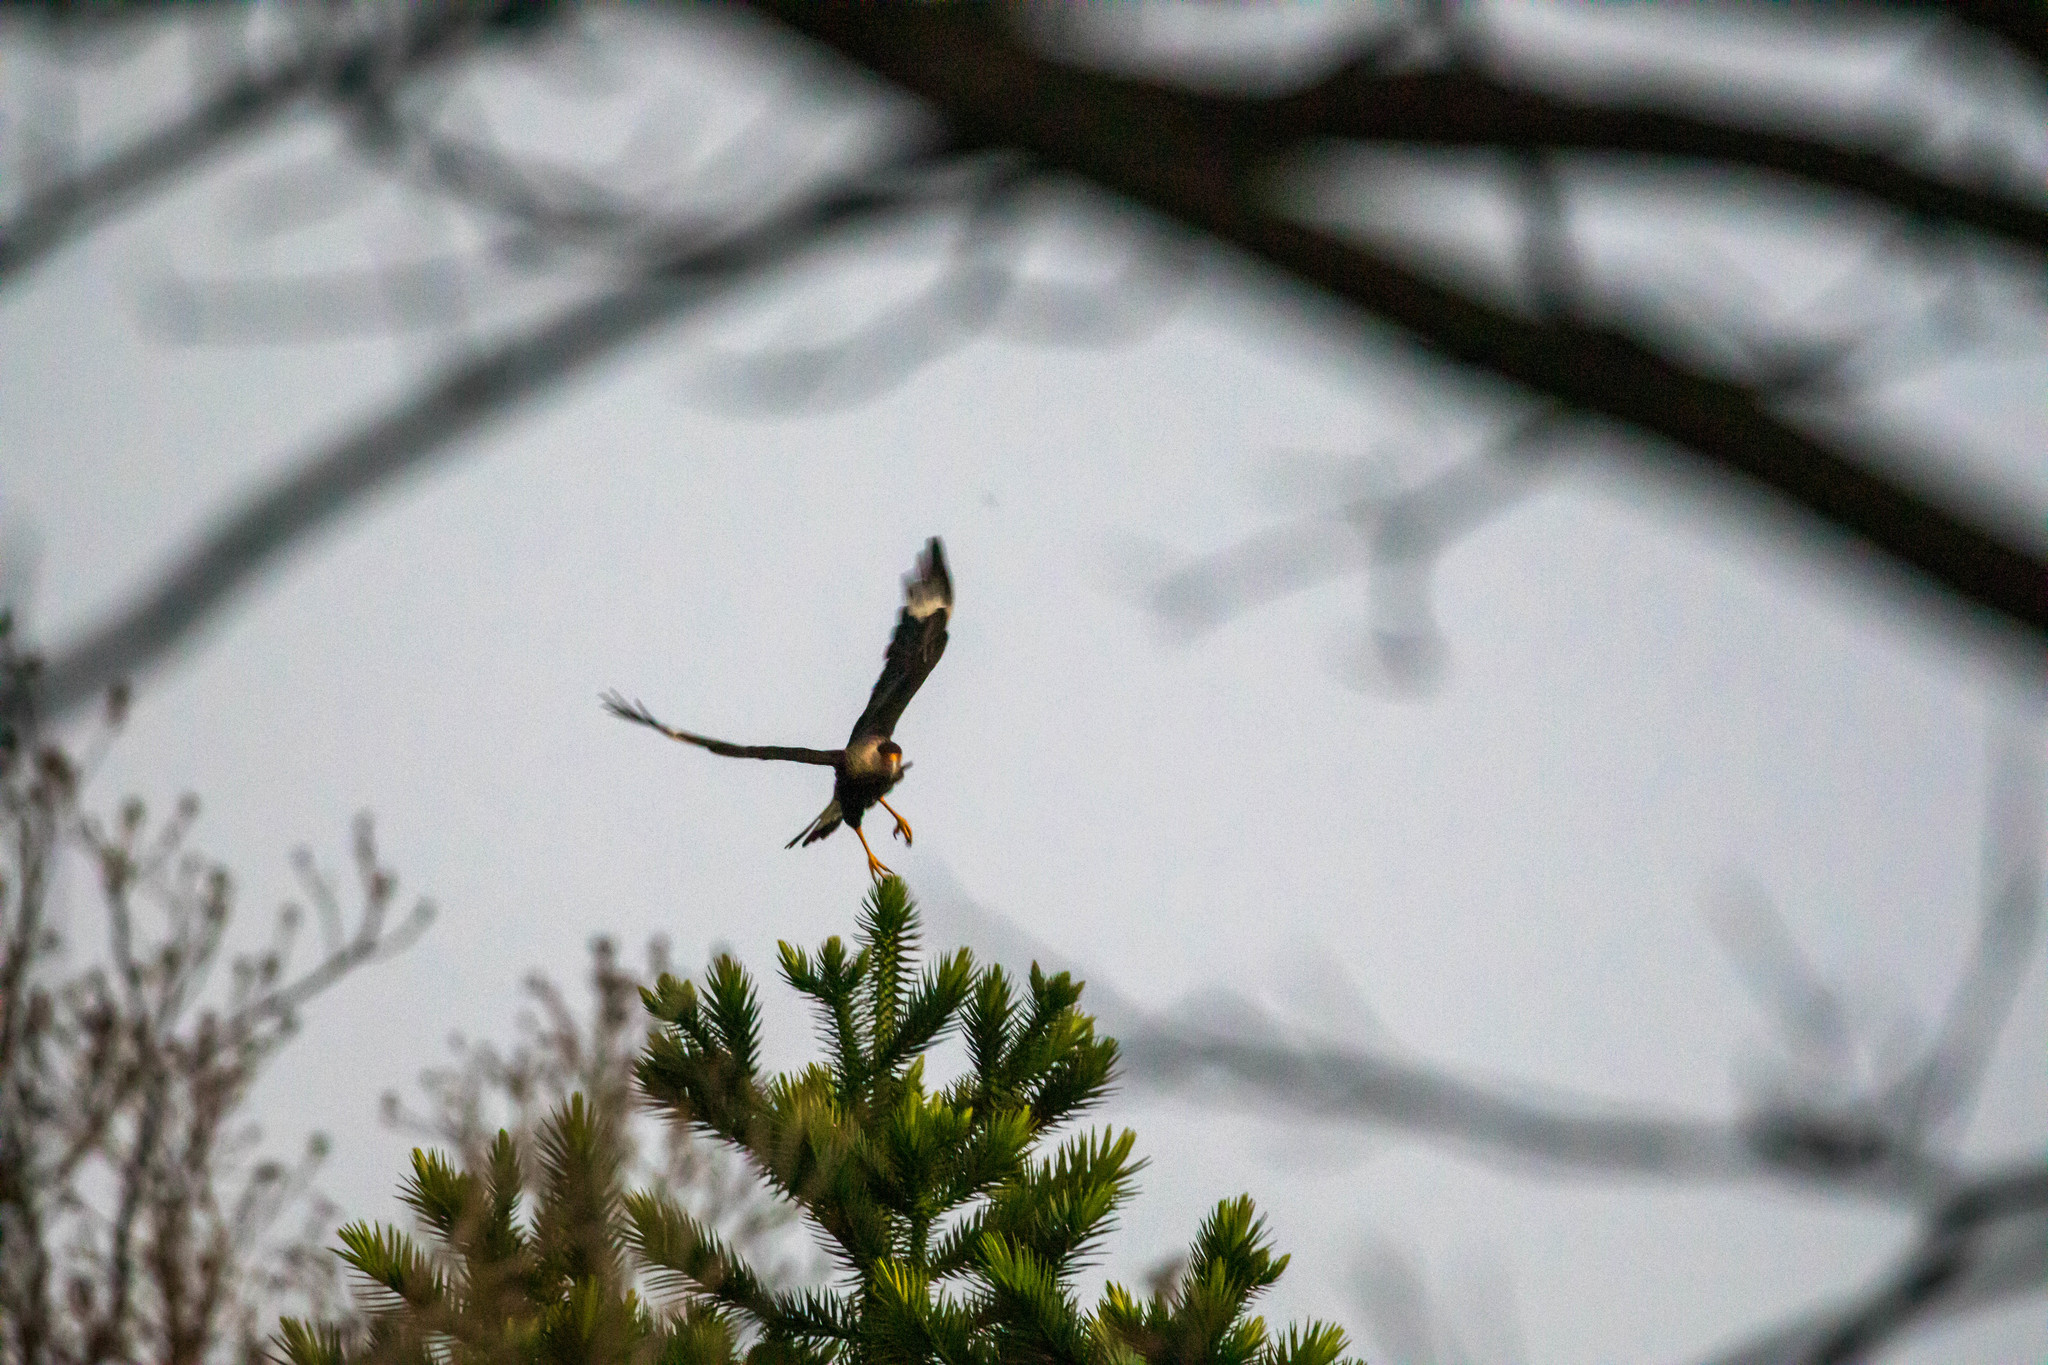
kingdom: Animalia
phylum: Chordata
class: Aves
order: Falconiformes
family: Falconidae
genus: Caracara
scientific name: Caracara plancus
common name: Southern caracara
